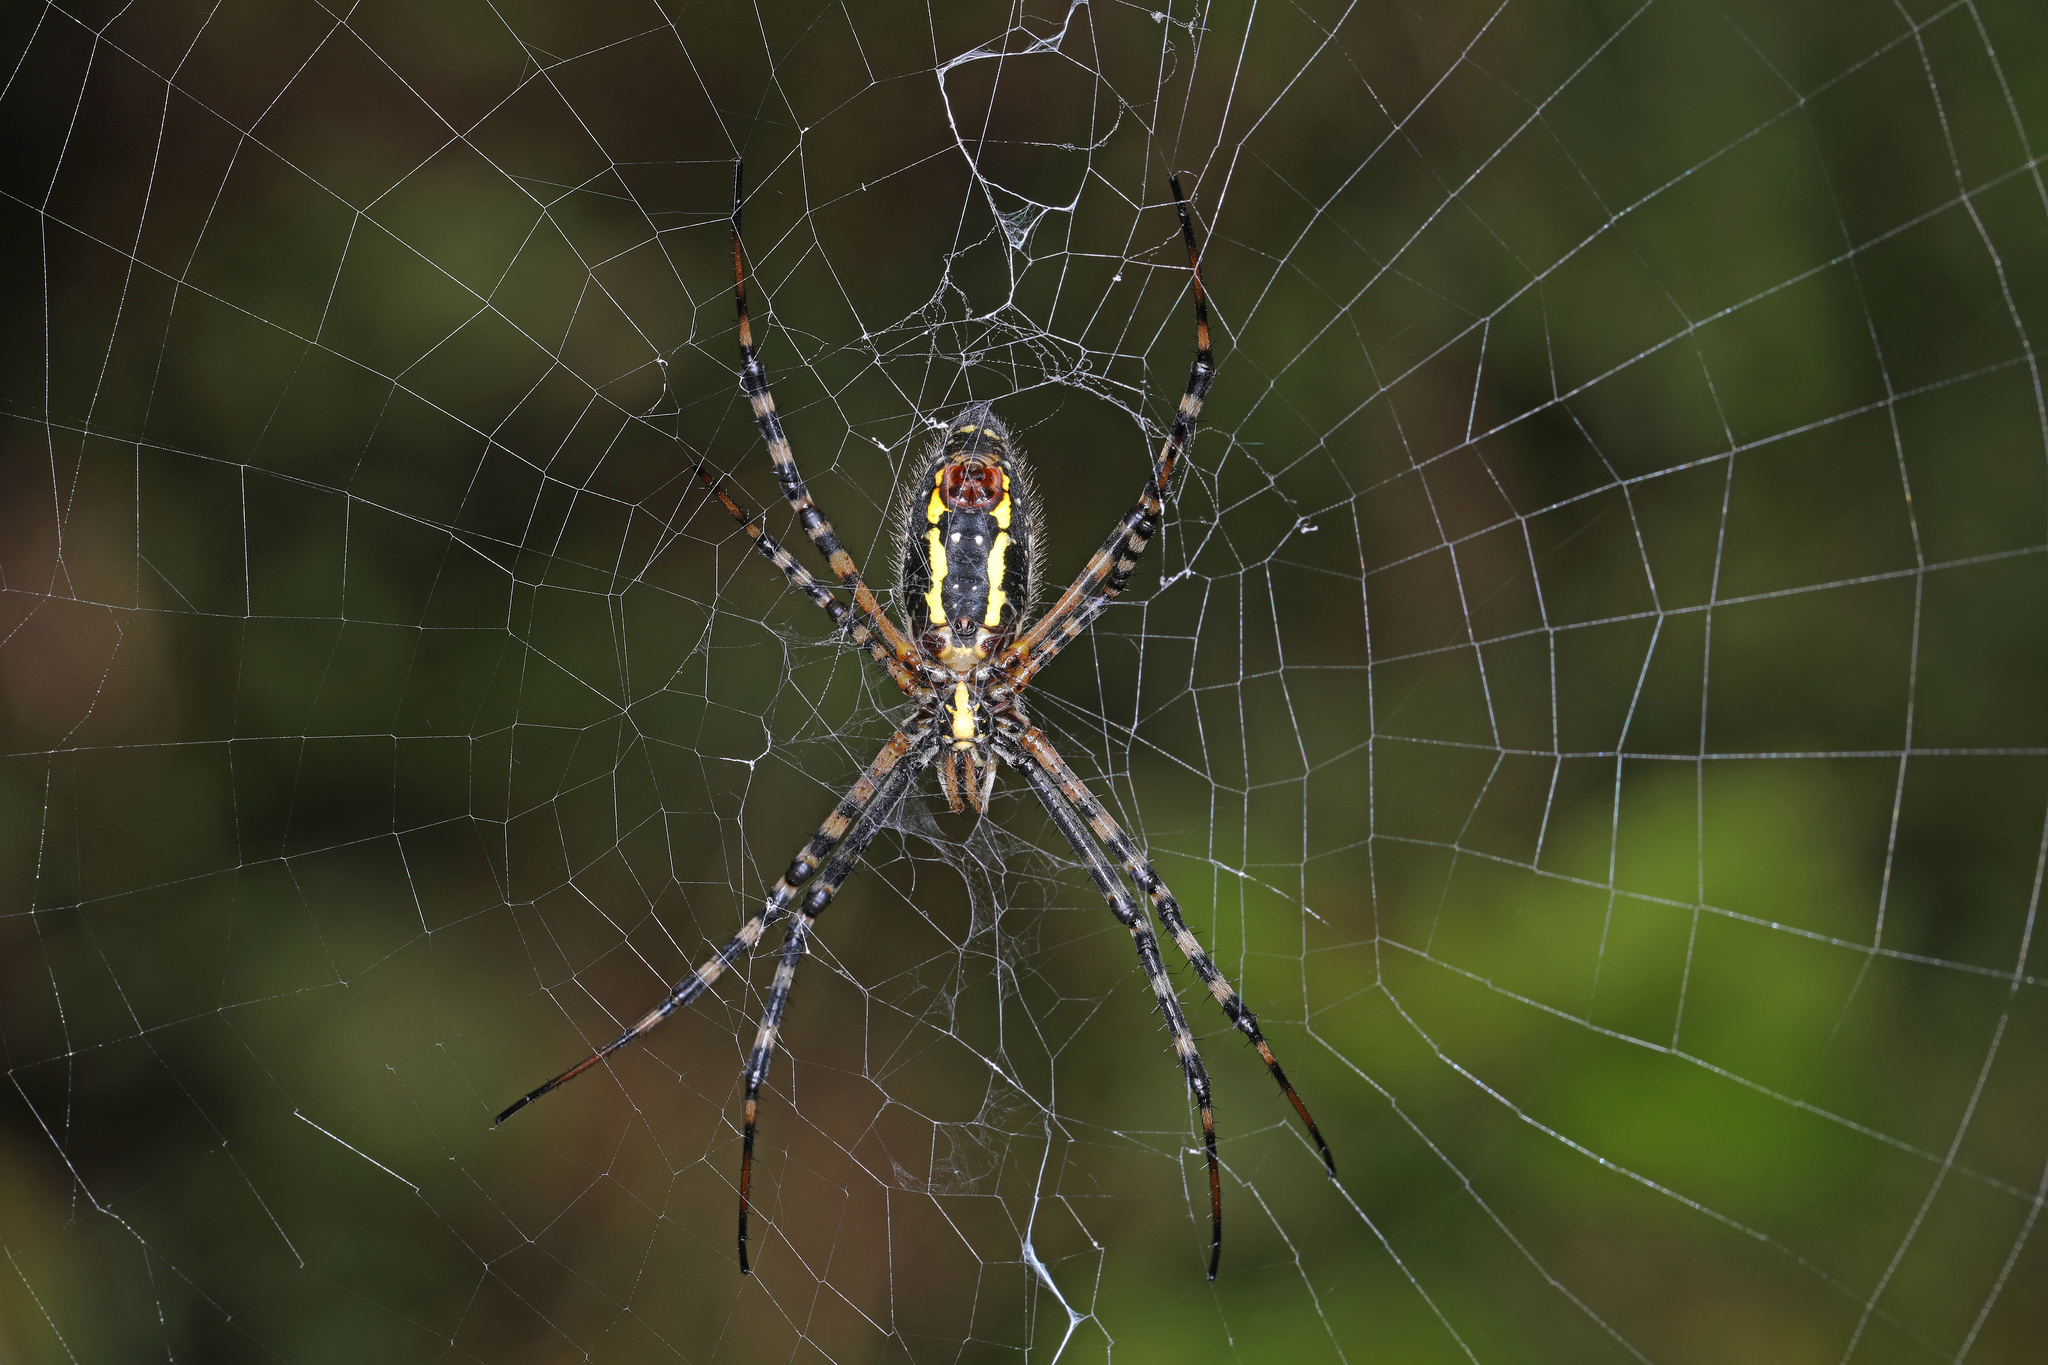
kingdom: Animalia
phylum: Arthropoda
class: Arachnida
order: Araneae
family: Araneidae
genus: Argiope
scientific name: Argiope aurantia
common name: Orb weavers
